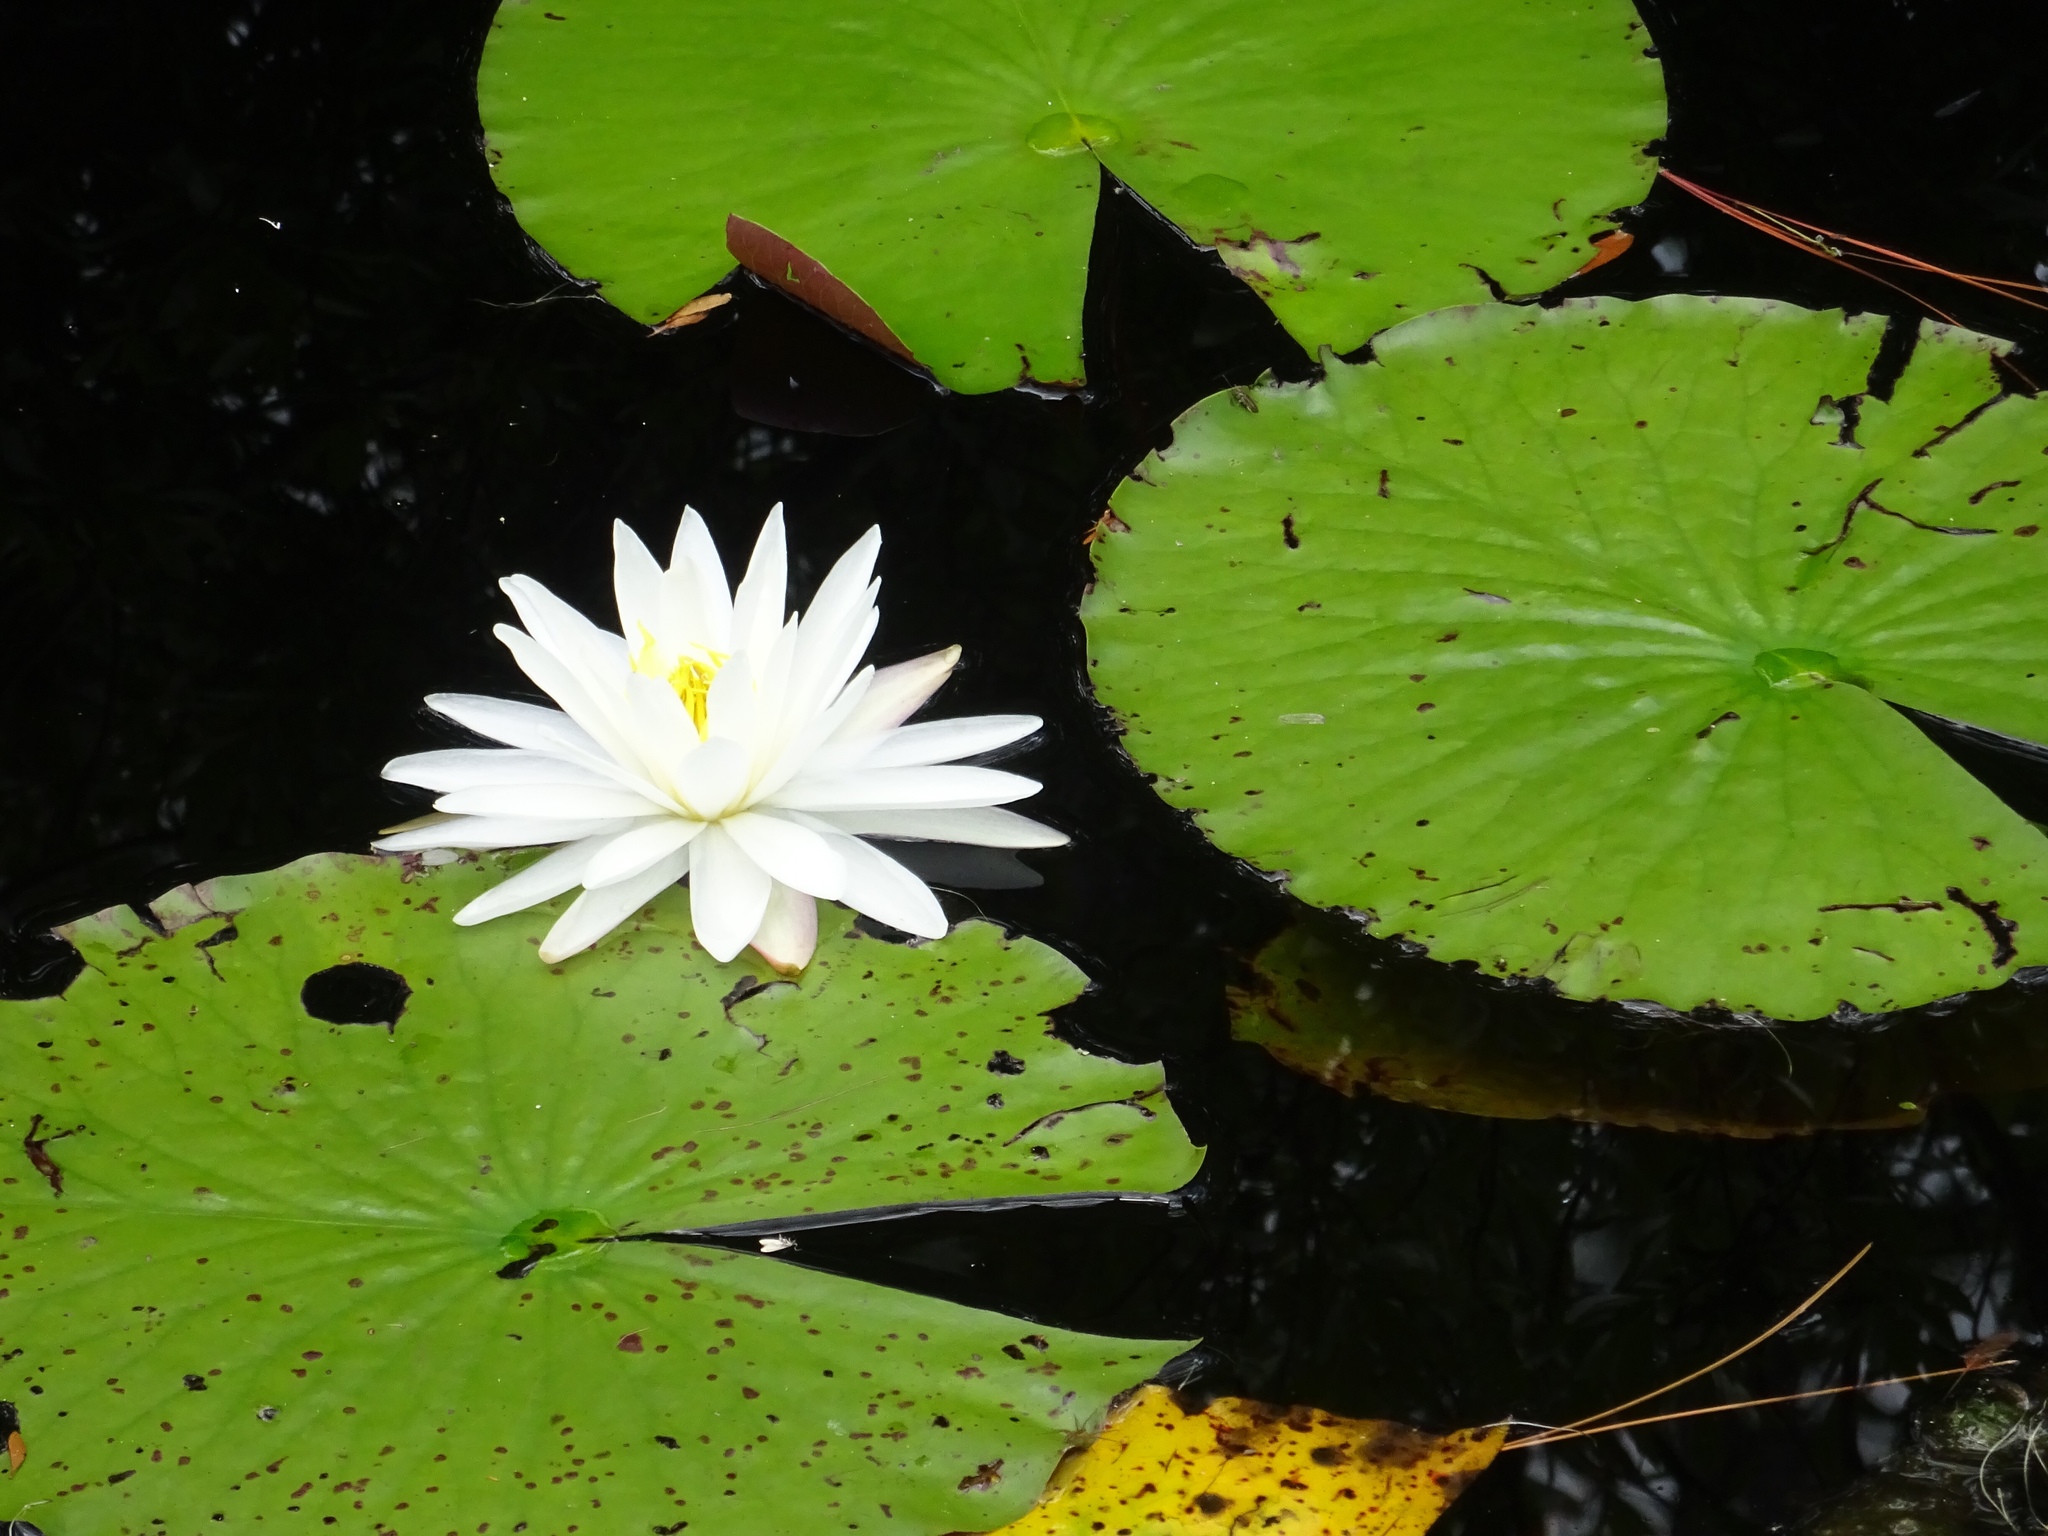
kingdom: Plantae
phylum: Tracheophyta
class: Magnoliopsida
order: Nymphaeales
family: Nymphaeaceae
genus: Nymphaea
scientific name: Nymphaea odorata
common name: Fragrant water-lily
